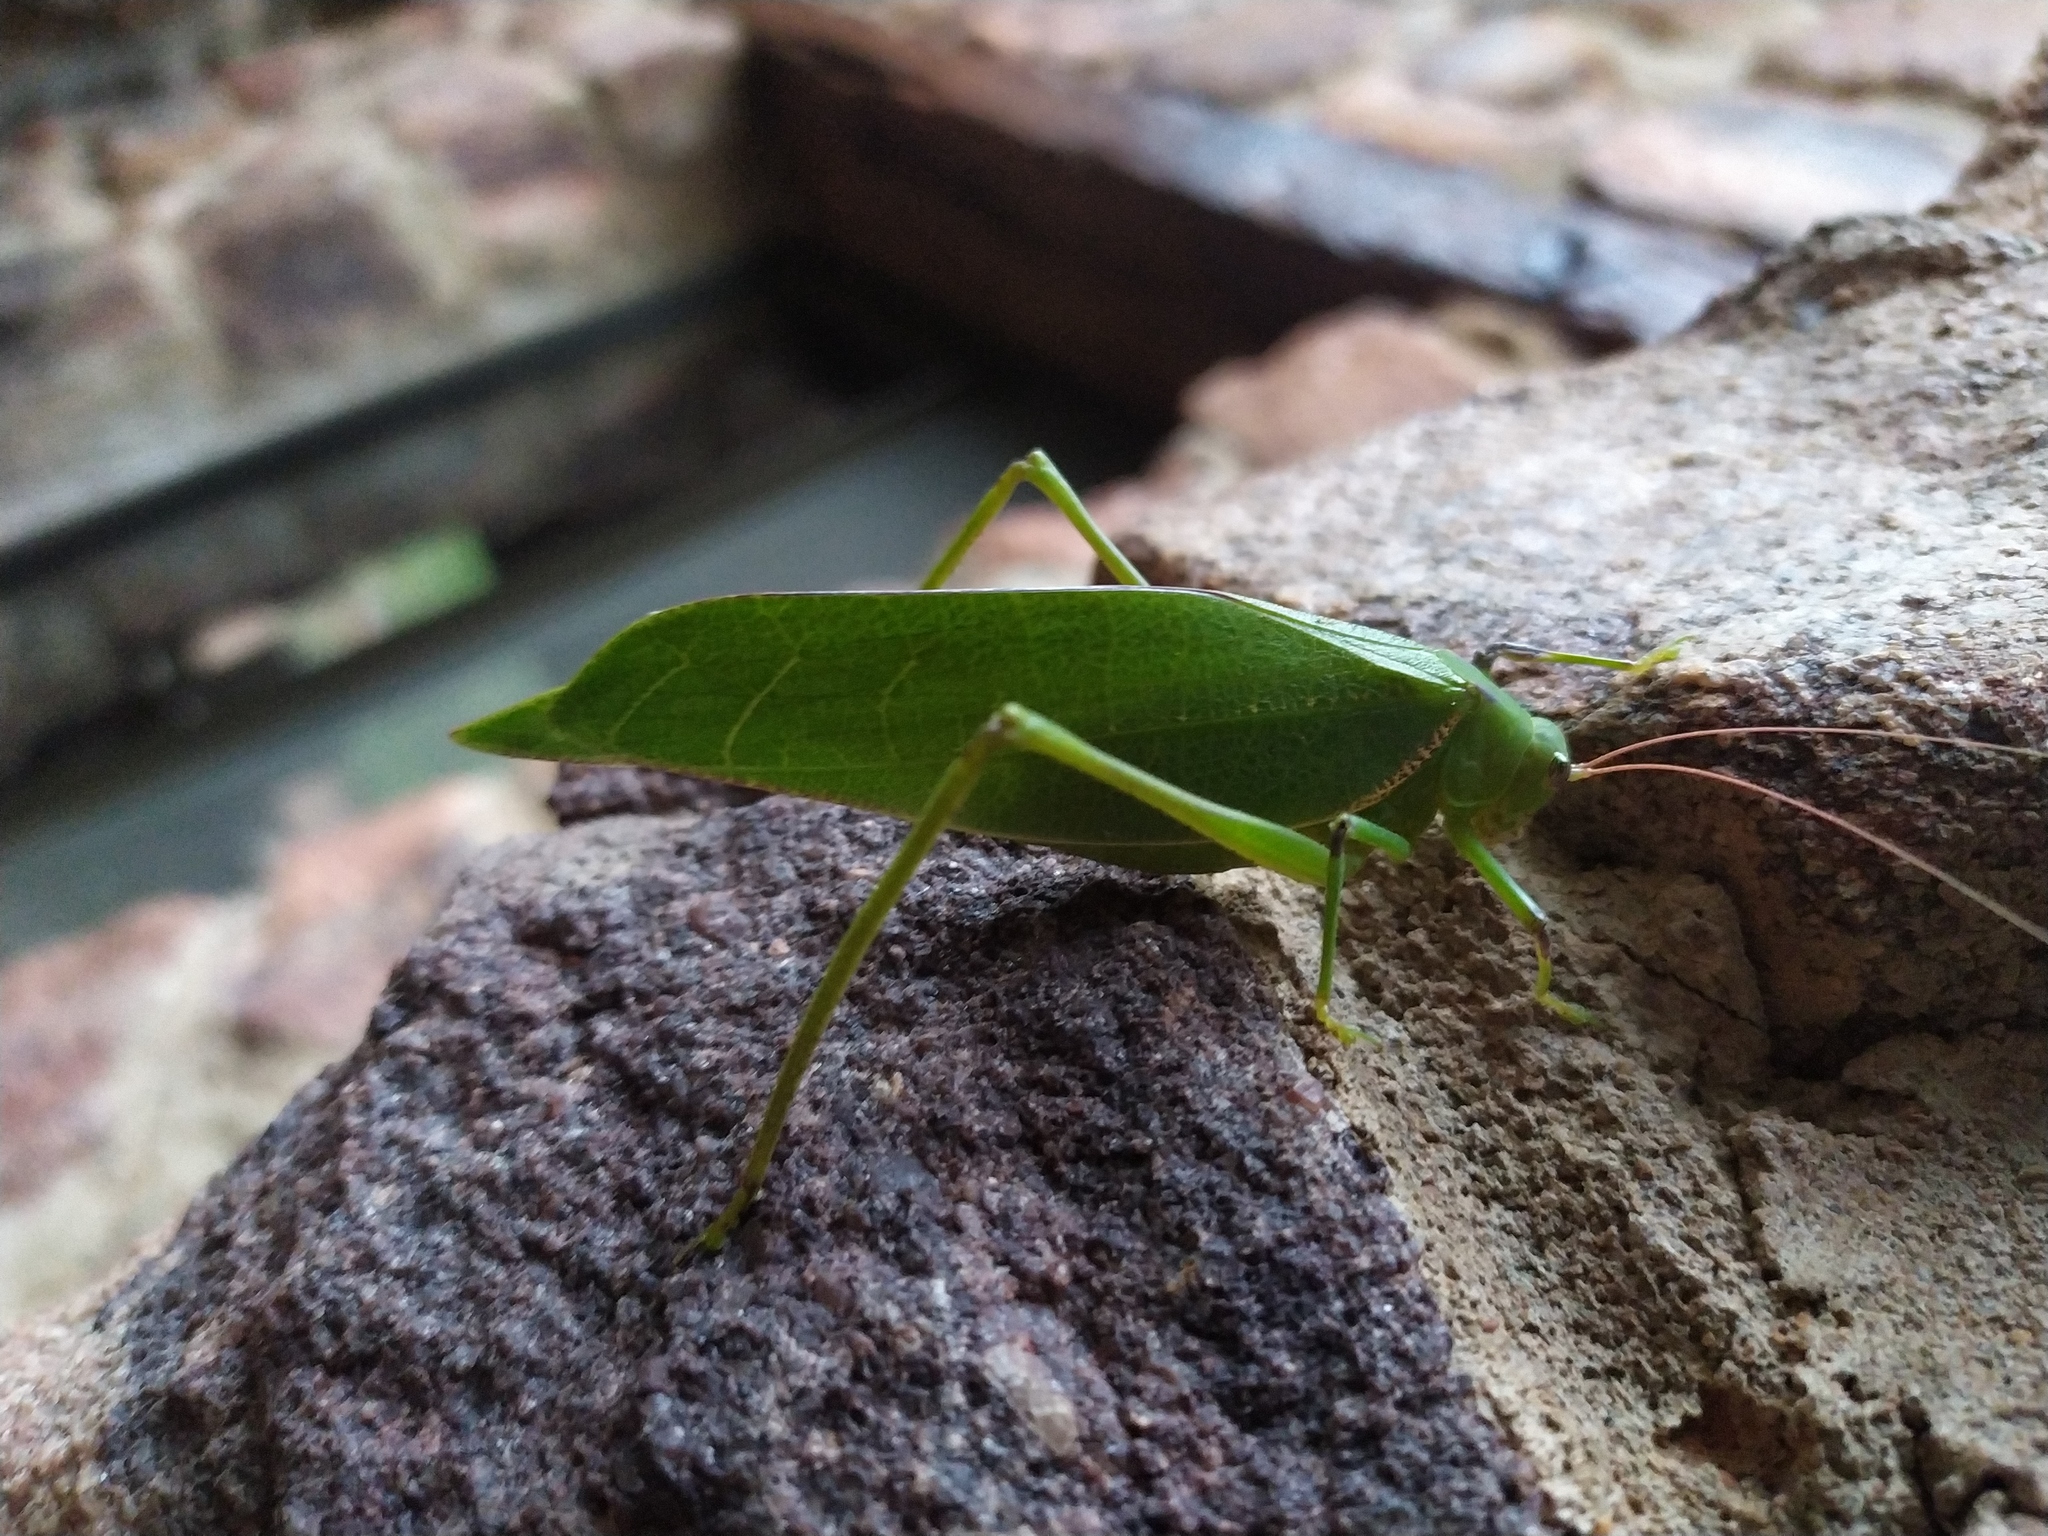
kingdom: Animalia
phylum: Arthropoda
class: Insecta
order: Orthoptera
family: Tettigoniidae
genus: Arantia
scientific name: Arantia tanzanica
